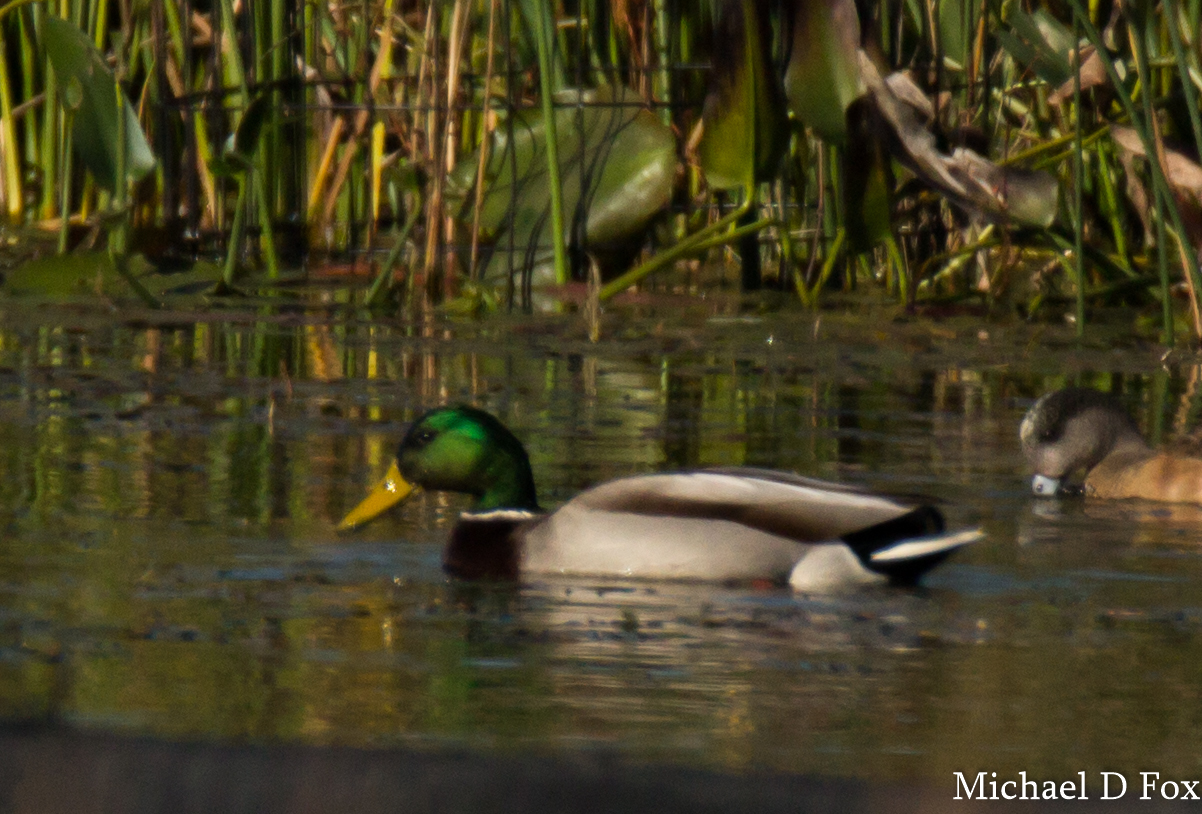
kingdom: Animalia
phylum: Chordata
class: Aves
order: Anseriformes
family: Anatidae
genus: Anas
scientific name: Anas platyrhynchos
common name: Mallard
